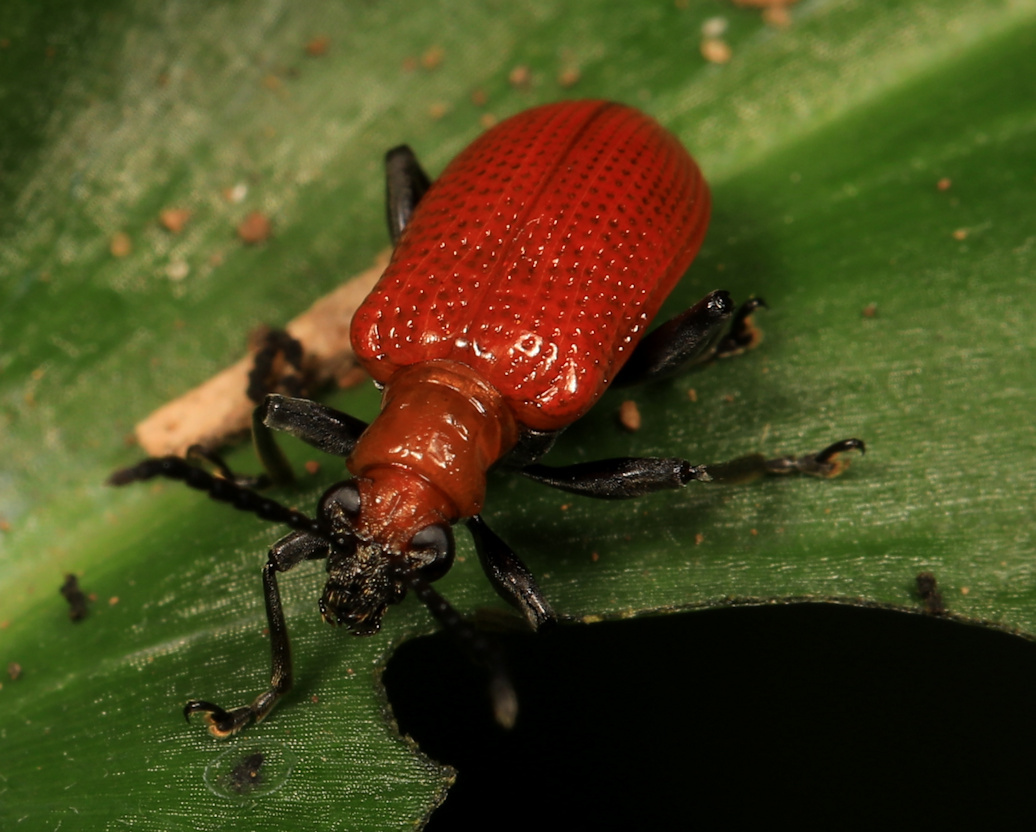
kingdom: Animalia
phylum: Arthropoda
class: Insecta
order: Coleoptera
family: Chrysomelidae
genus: Lema
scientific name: Lema
